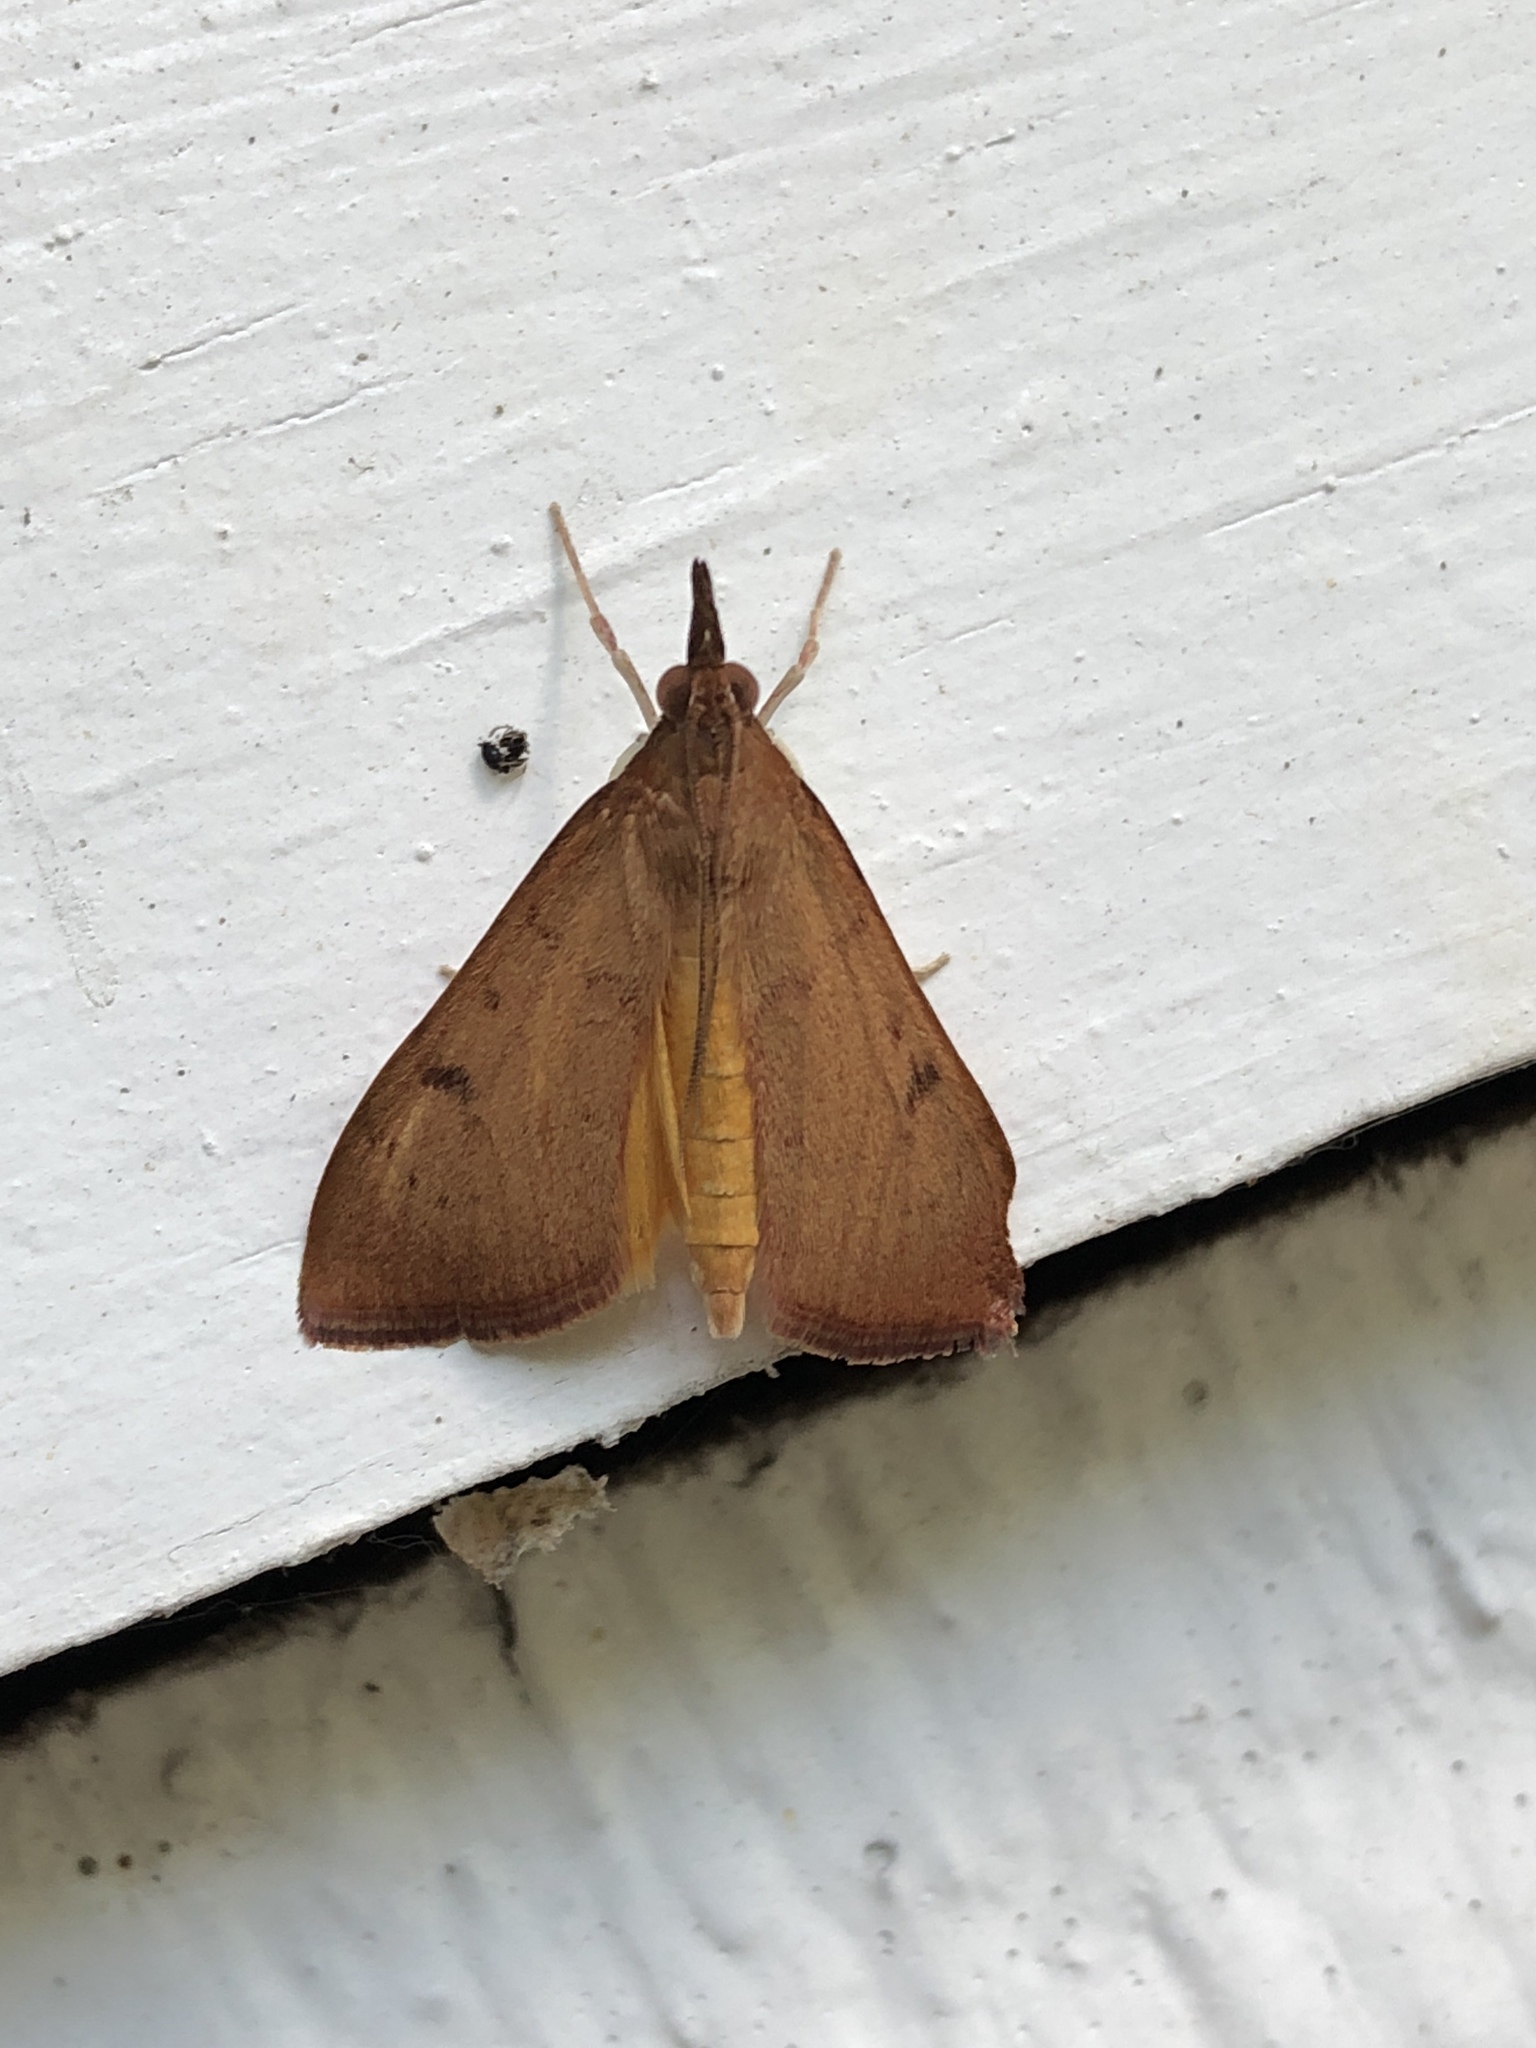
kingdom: Animalia
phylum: Arthropoda
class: Insecta
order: Lepidoptera
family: Crambidae
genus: Uresiphita
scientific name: Uresiphita reversalis
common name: Genista broom moth
